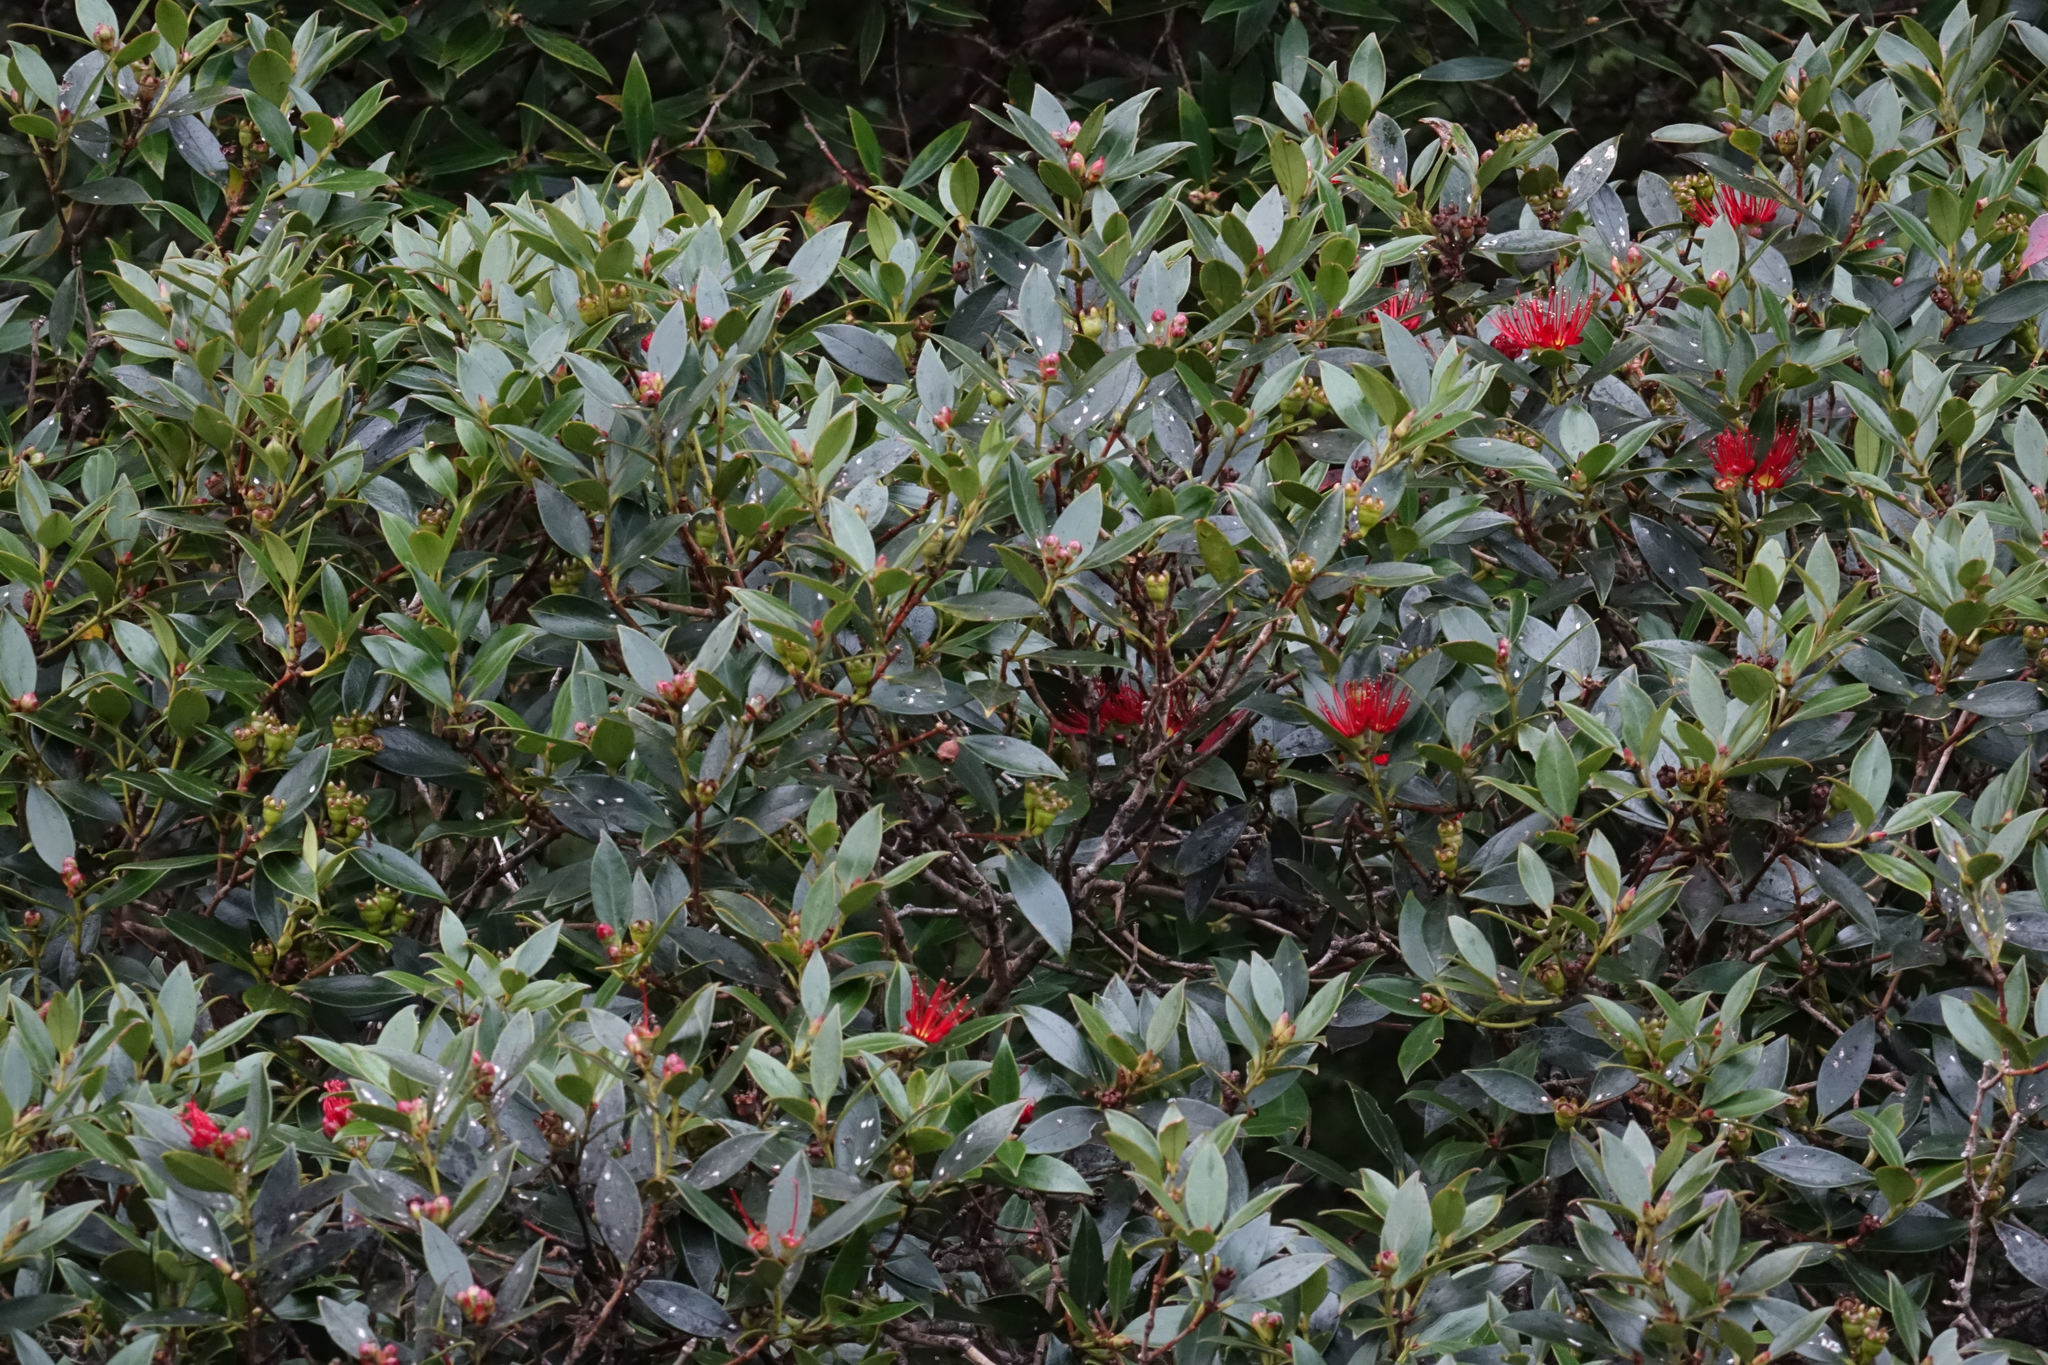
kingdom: Plantae
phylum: Tracheophyta
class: Magnoliopsida
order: Myrtales
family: Myrtaceae
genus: Metrosideros
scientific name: Metrosideros umbellata
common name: Southern rata
